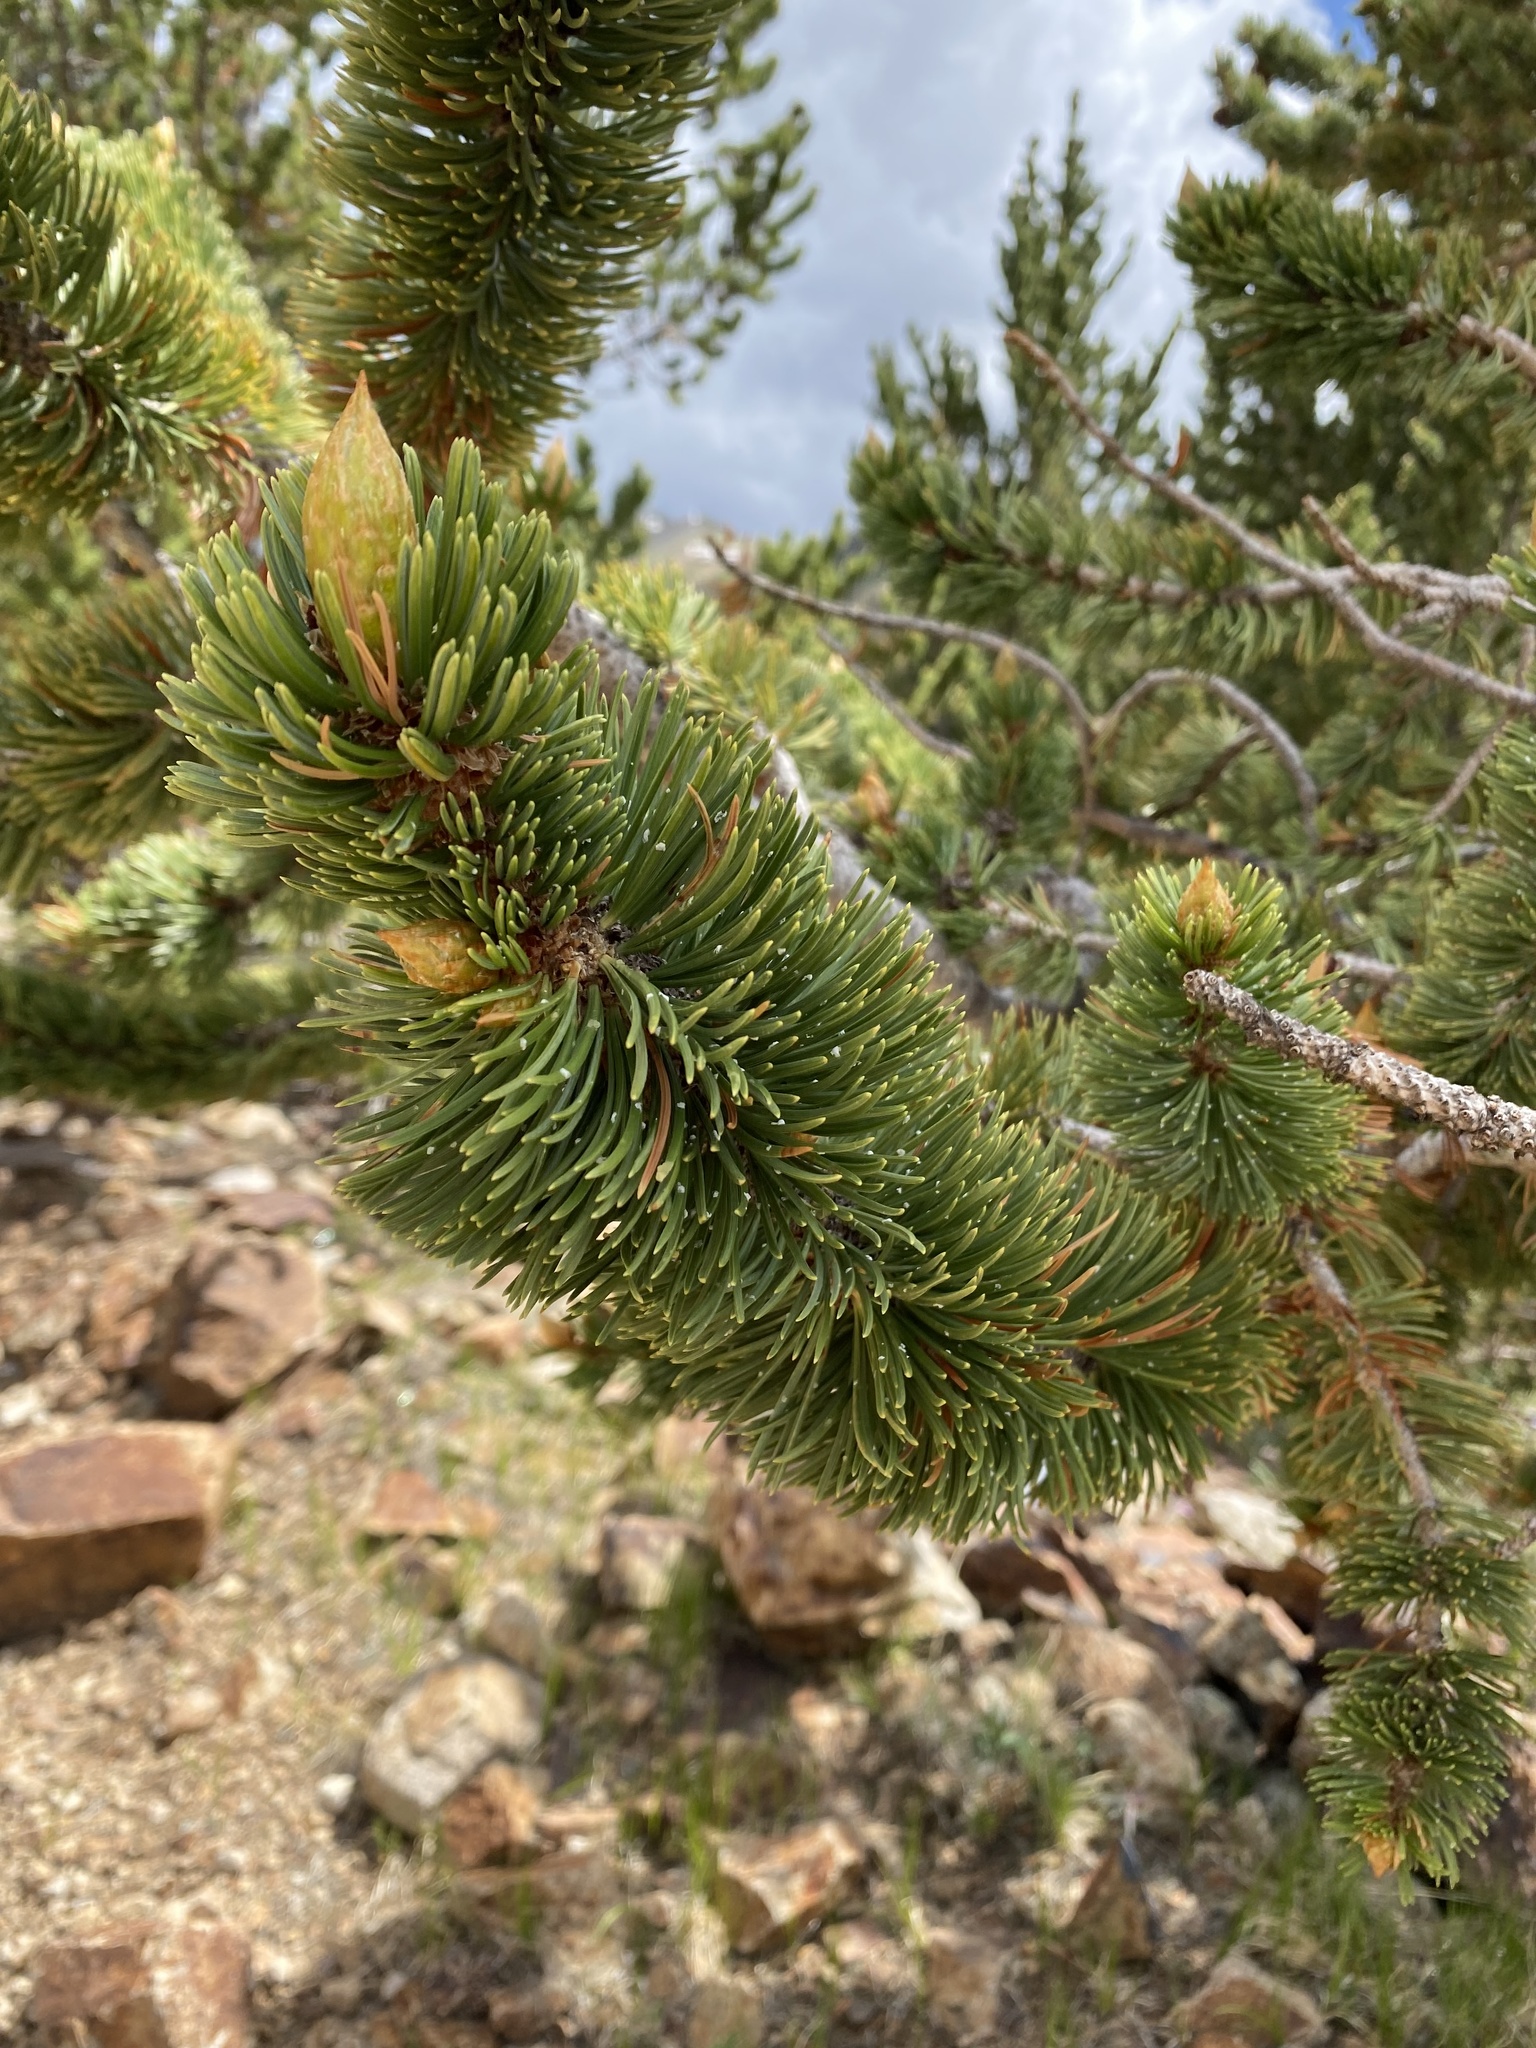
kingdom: Plantae
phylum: Tracheophyta
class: Pinopsida
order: Pinales
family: Pinaceae
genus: Pinus
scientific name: Pinus aristata
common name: Colorado bristlecone pine
